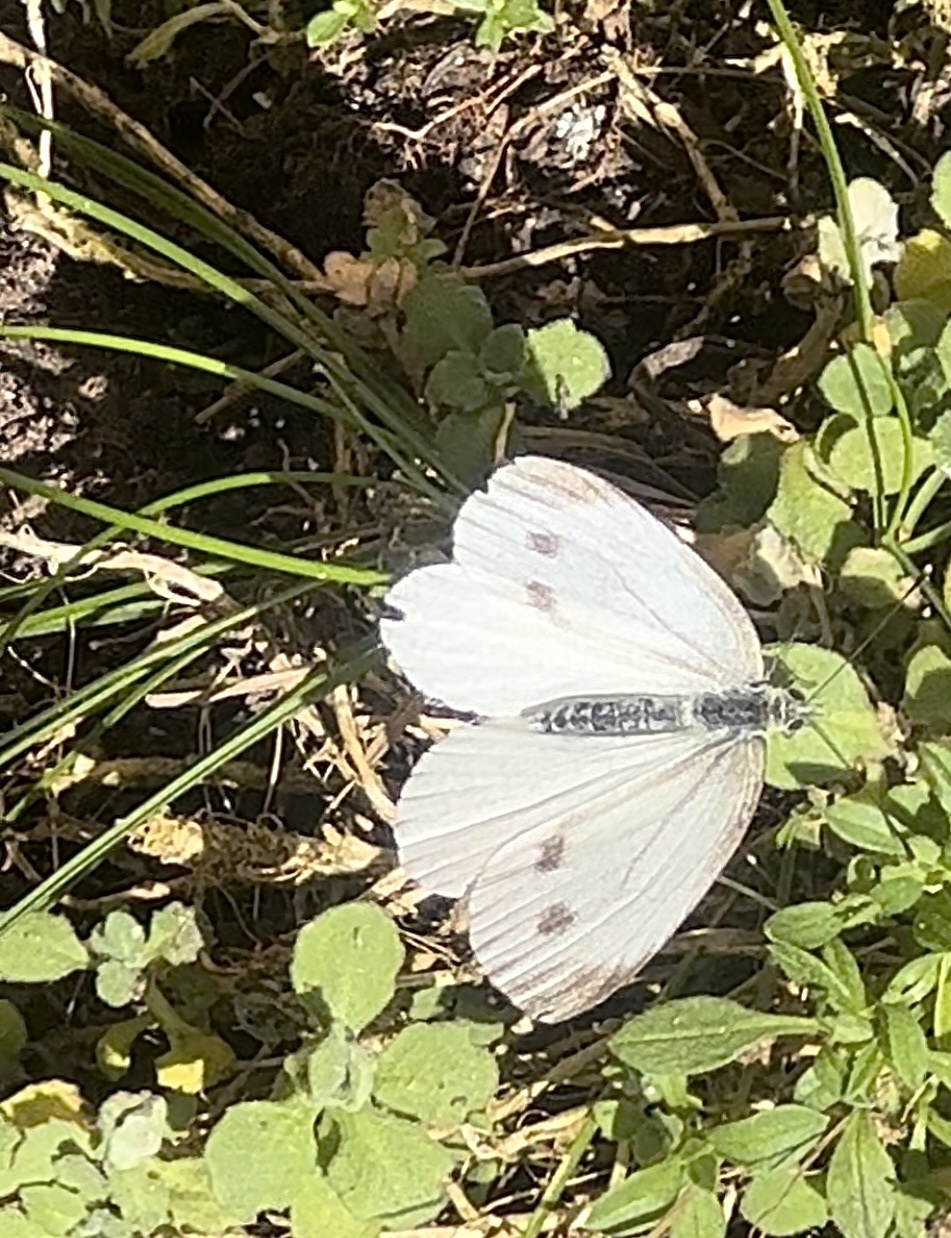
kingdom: Animalia
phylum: Arthropoda
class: Insecta
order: Lepidoptera
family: Pieridae
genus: Pieris
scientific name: Pieris rapae
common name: Small white
